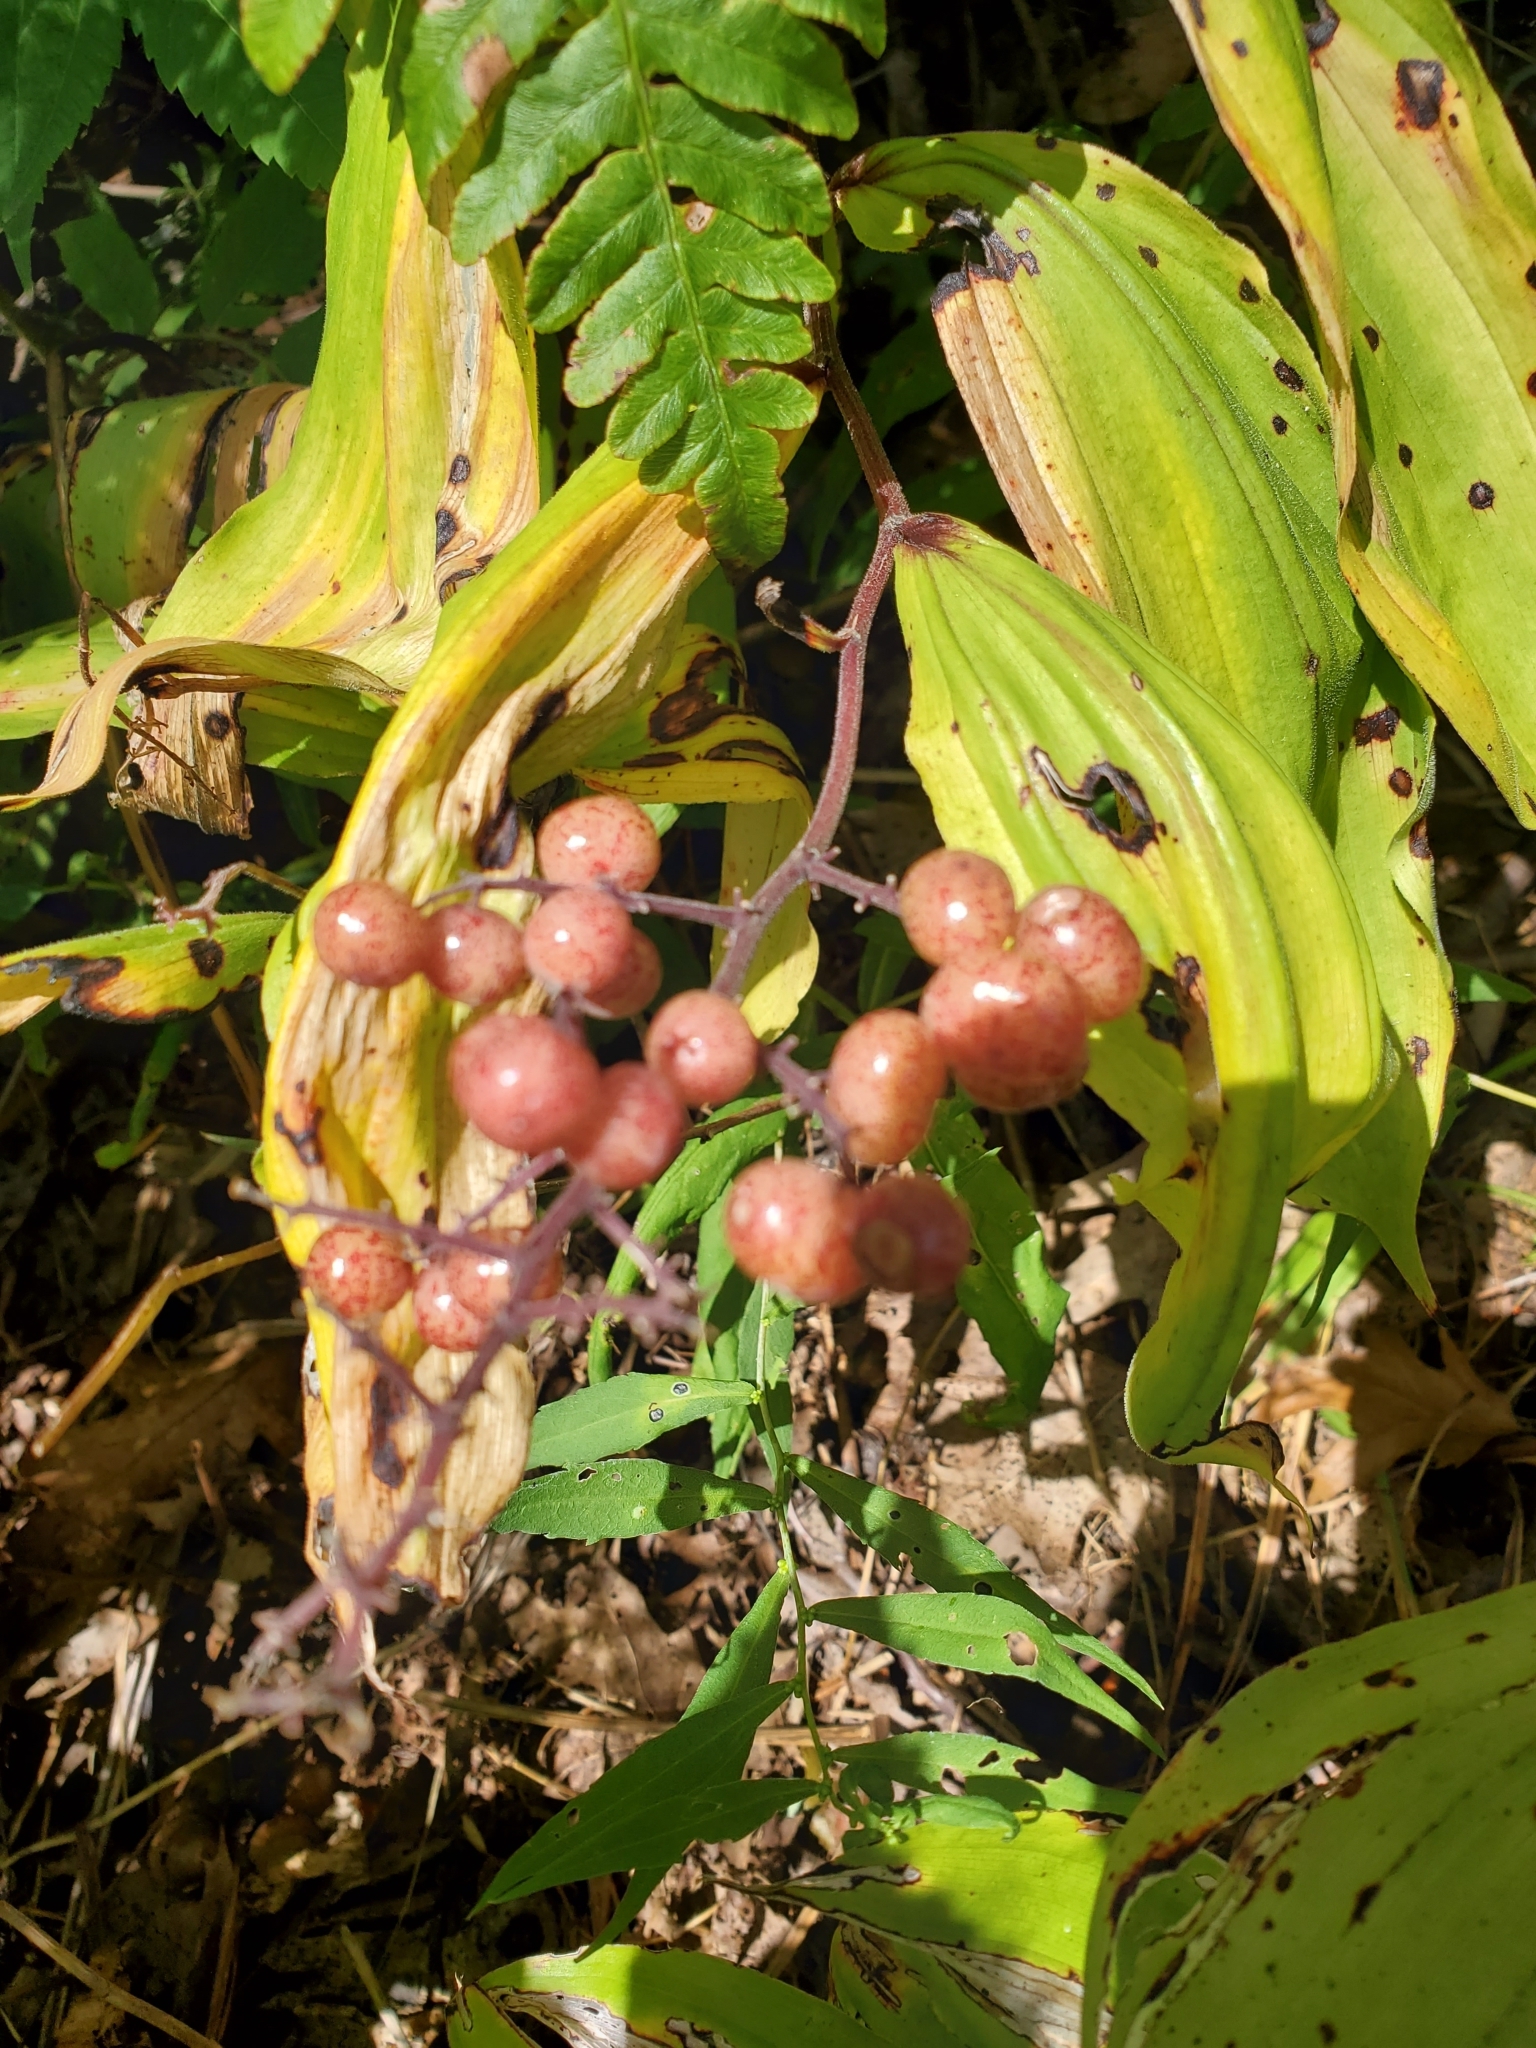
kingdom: Plantae
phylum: Tracheophyta
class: Liliopsida
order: Asparagales
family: Asparagaceae
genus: Maianthemum
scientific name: Maianthemum racemosum
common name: False spikenard
